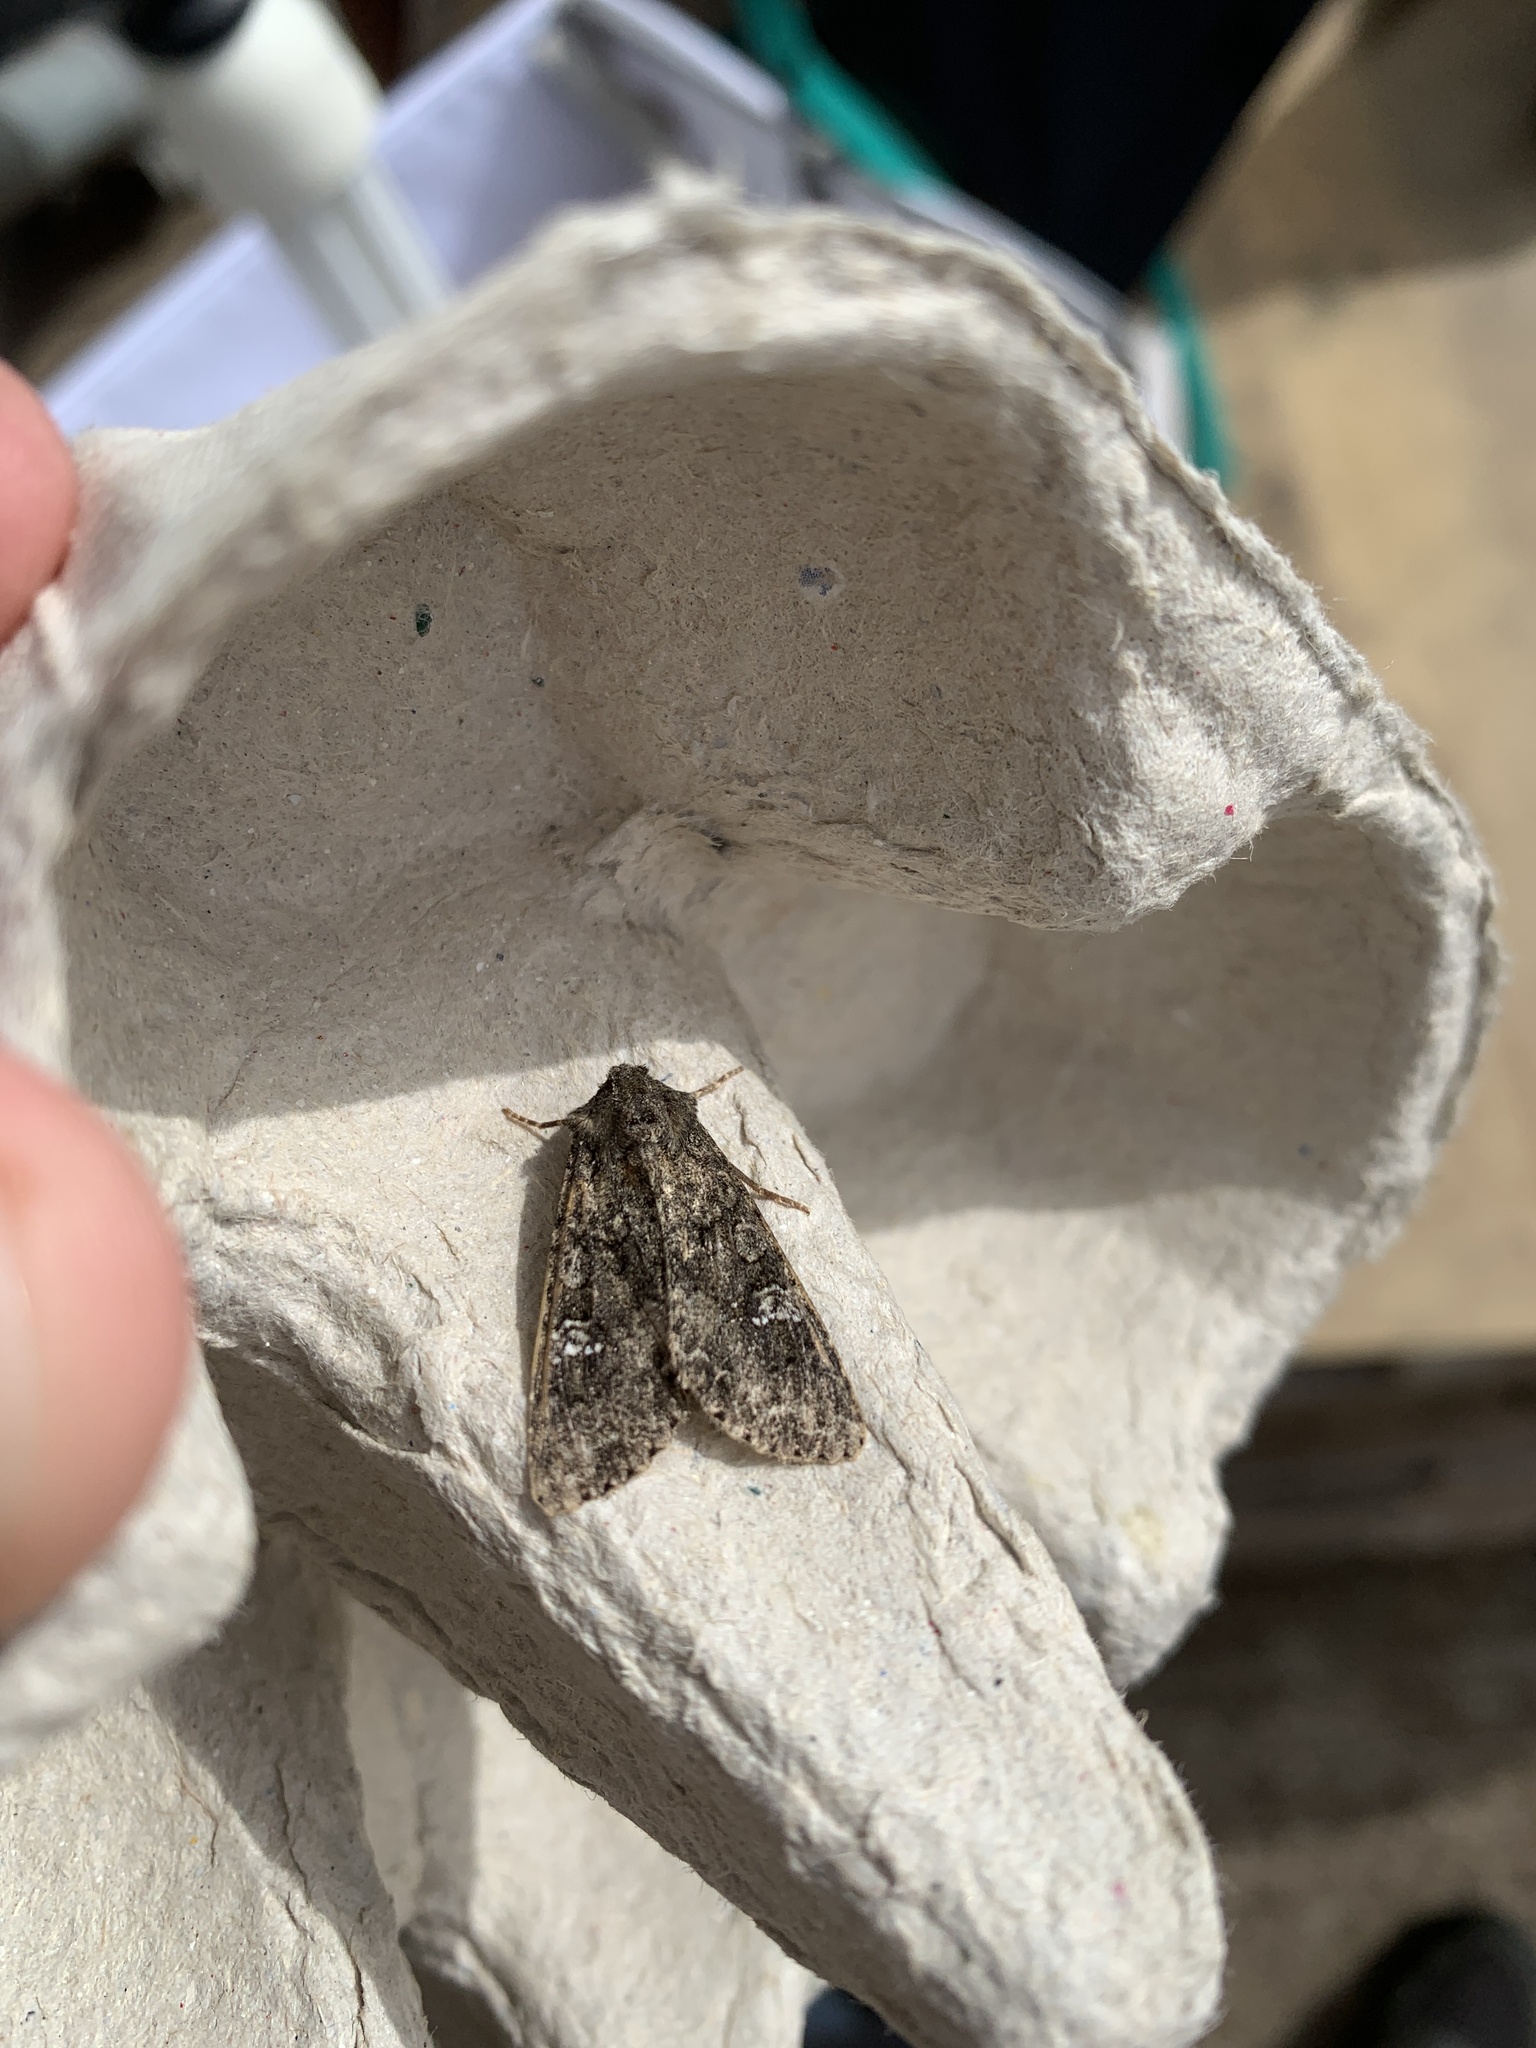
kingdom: Animalia
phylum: Arthropoda
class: Insecta
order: Lepidoptera
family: Noctuidae
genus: Mamestra
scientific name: Mamestra brassicae
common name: Cabbage moth
